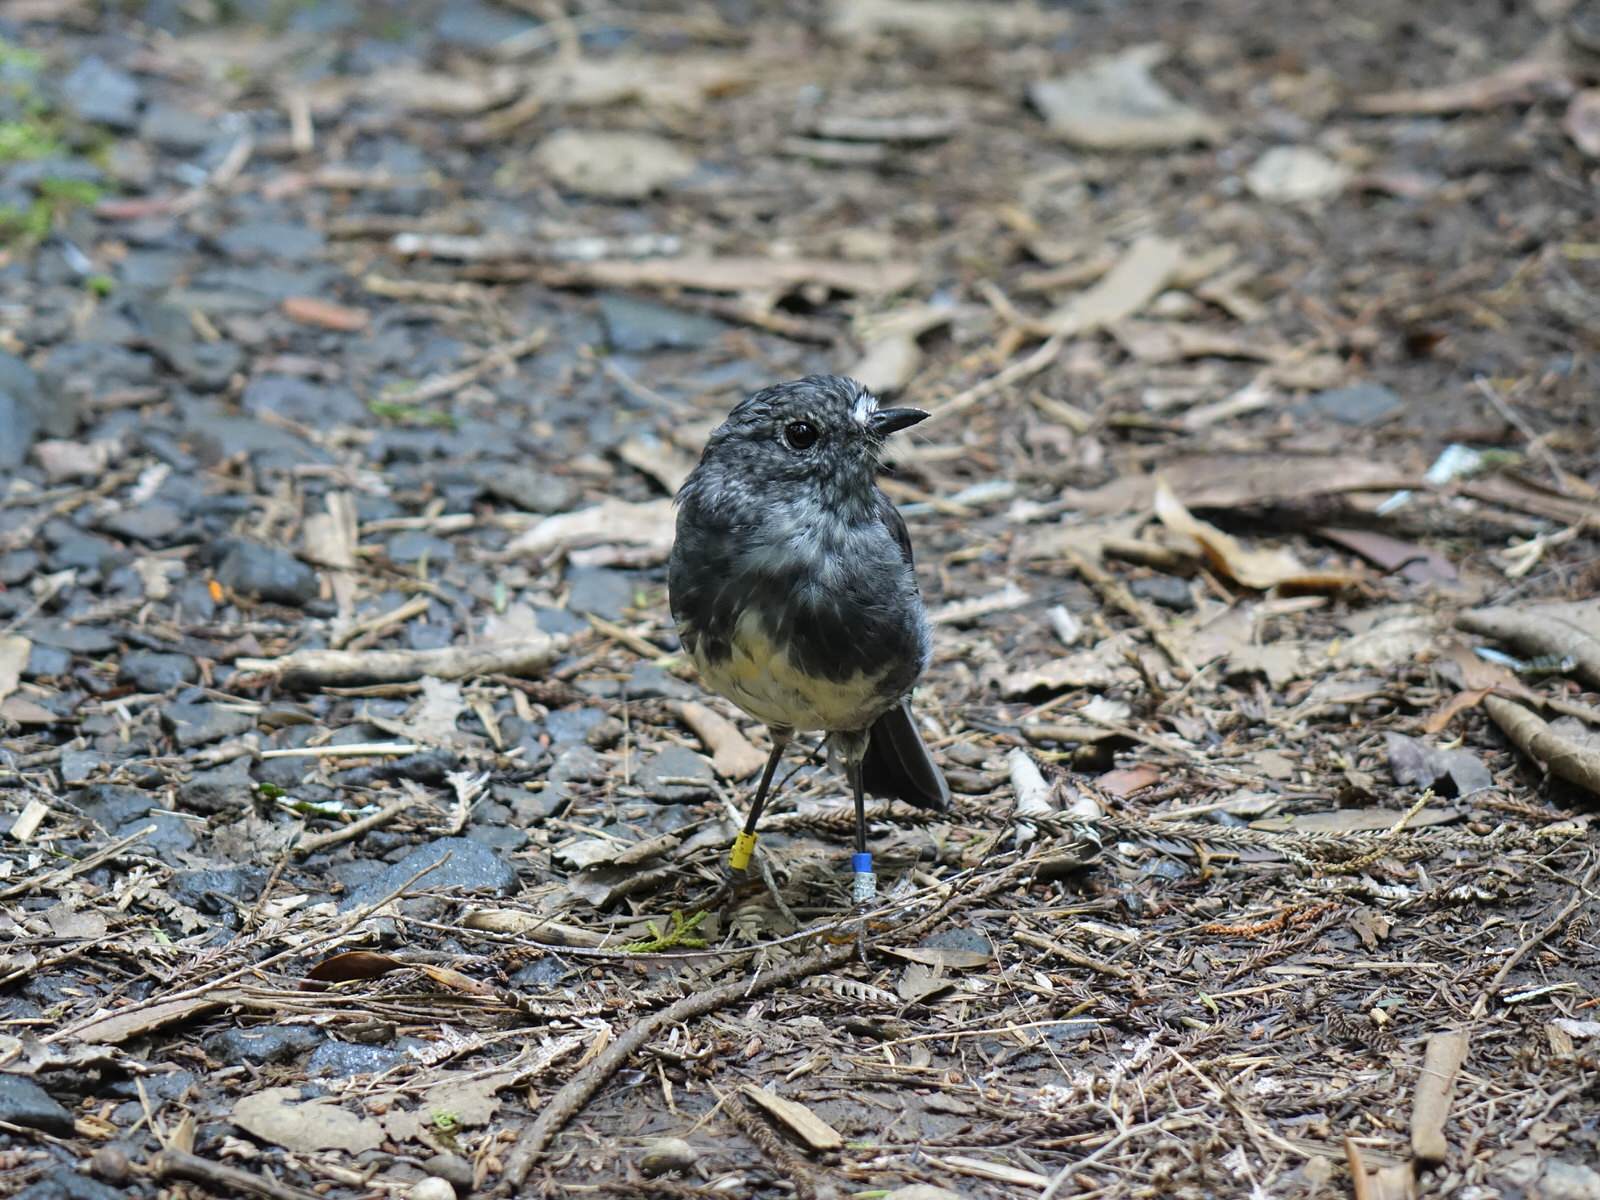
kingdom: Animalia
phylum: Chordata
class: Aves
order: Passeriformes
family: Petroicidae
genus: Petroica
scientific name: Petroica australis
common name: New zealand robin
